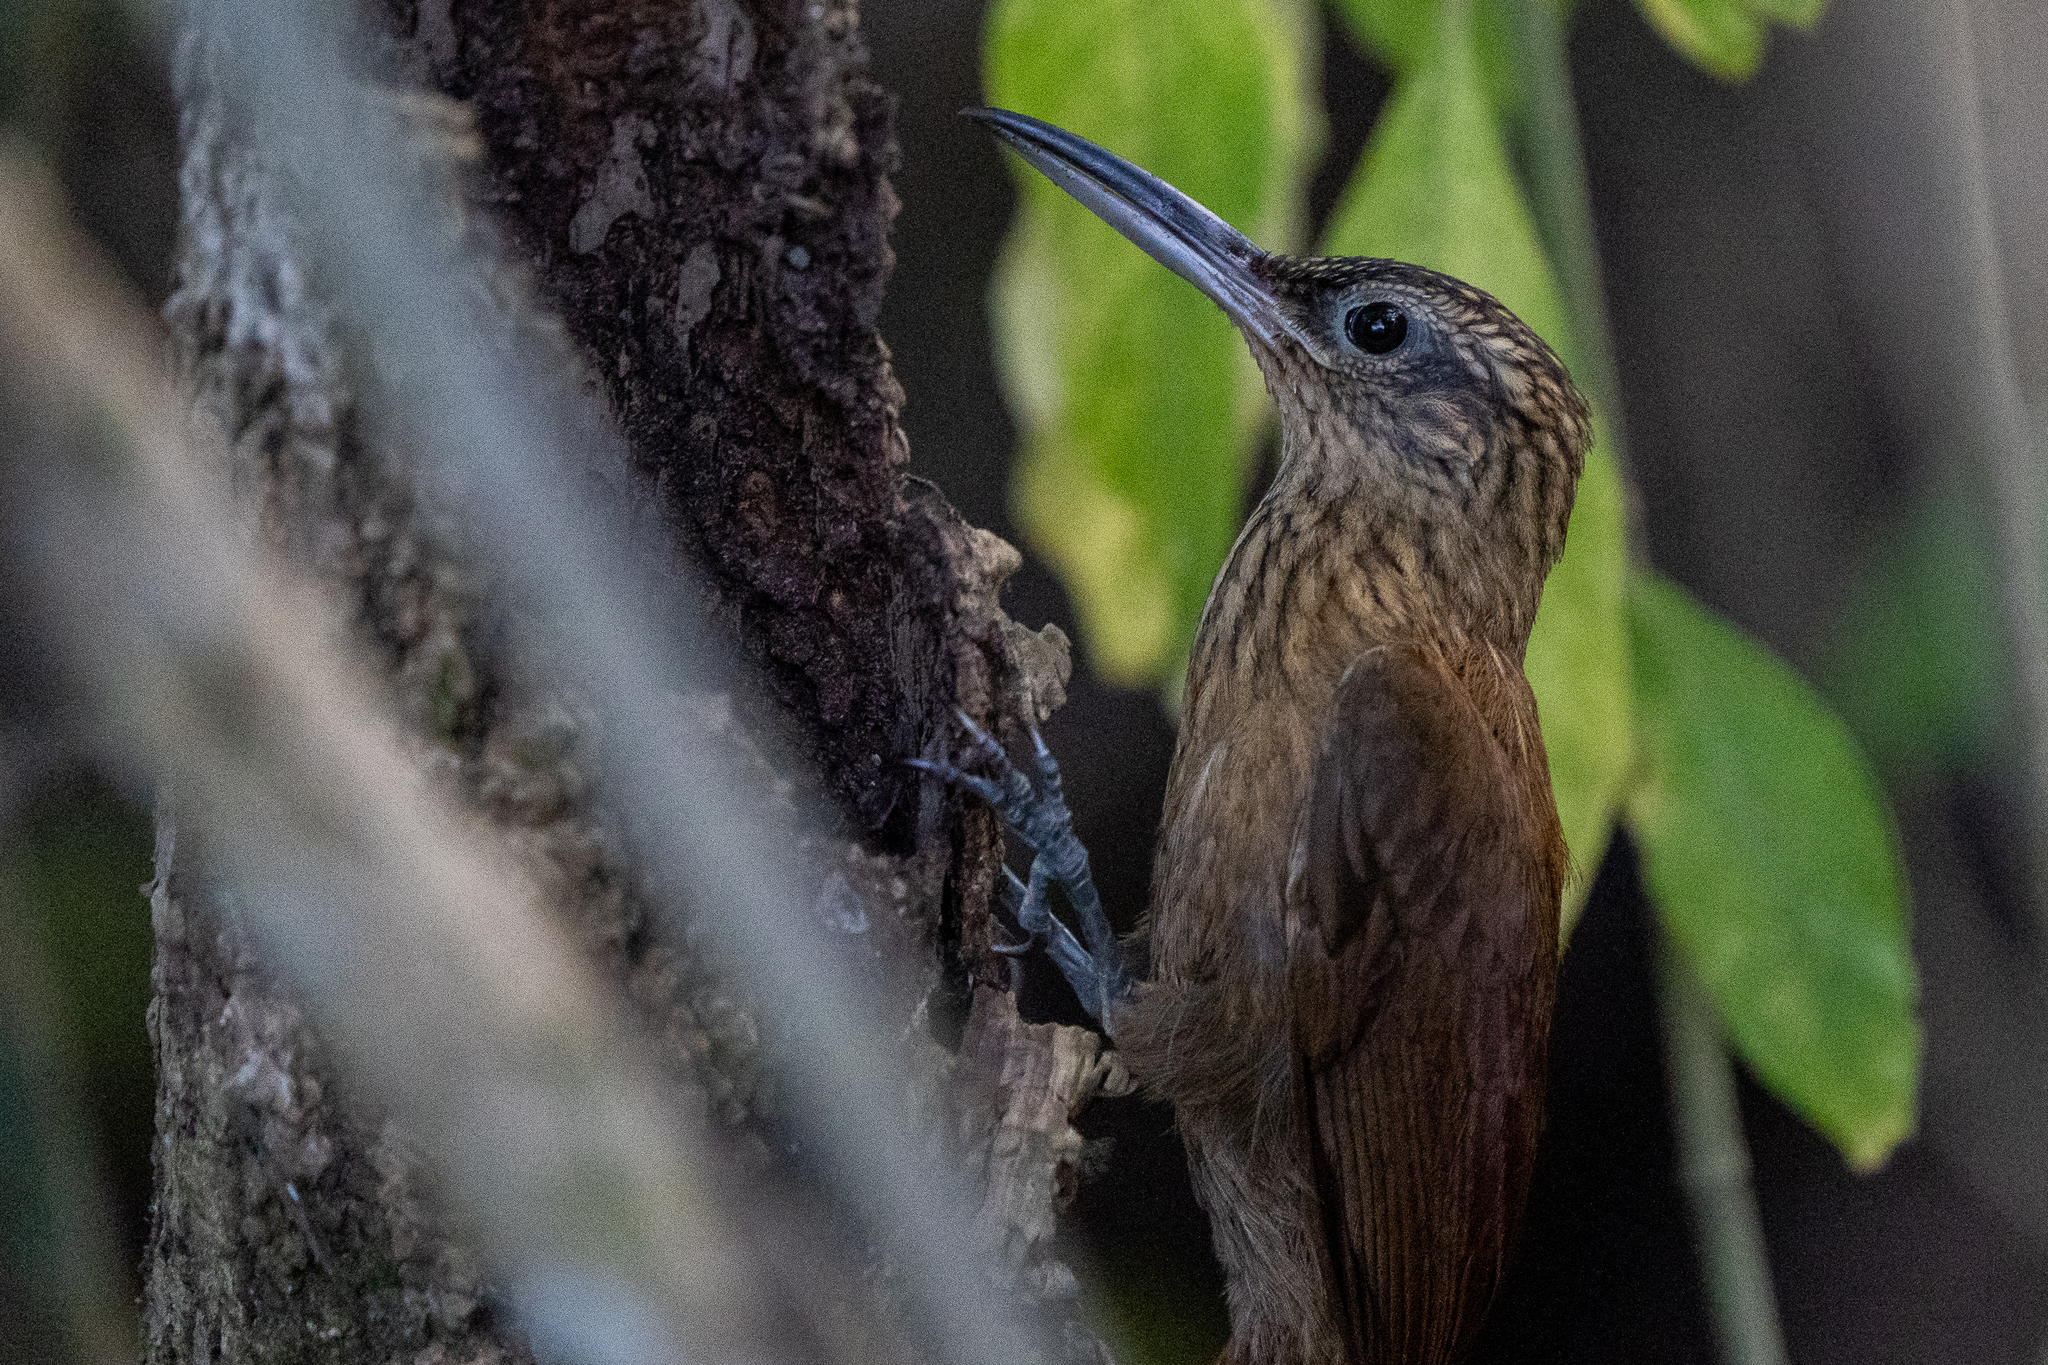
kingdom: Animalia
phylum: Chordata
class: Aves
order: Passeriformes
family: Furnariidae
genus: Xiphorhynchus
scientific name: Xiphorhynchus susurrans
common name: Cocoa woodcreeper
